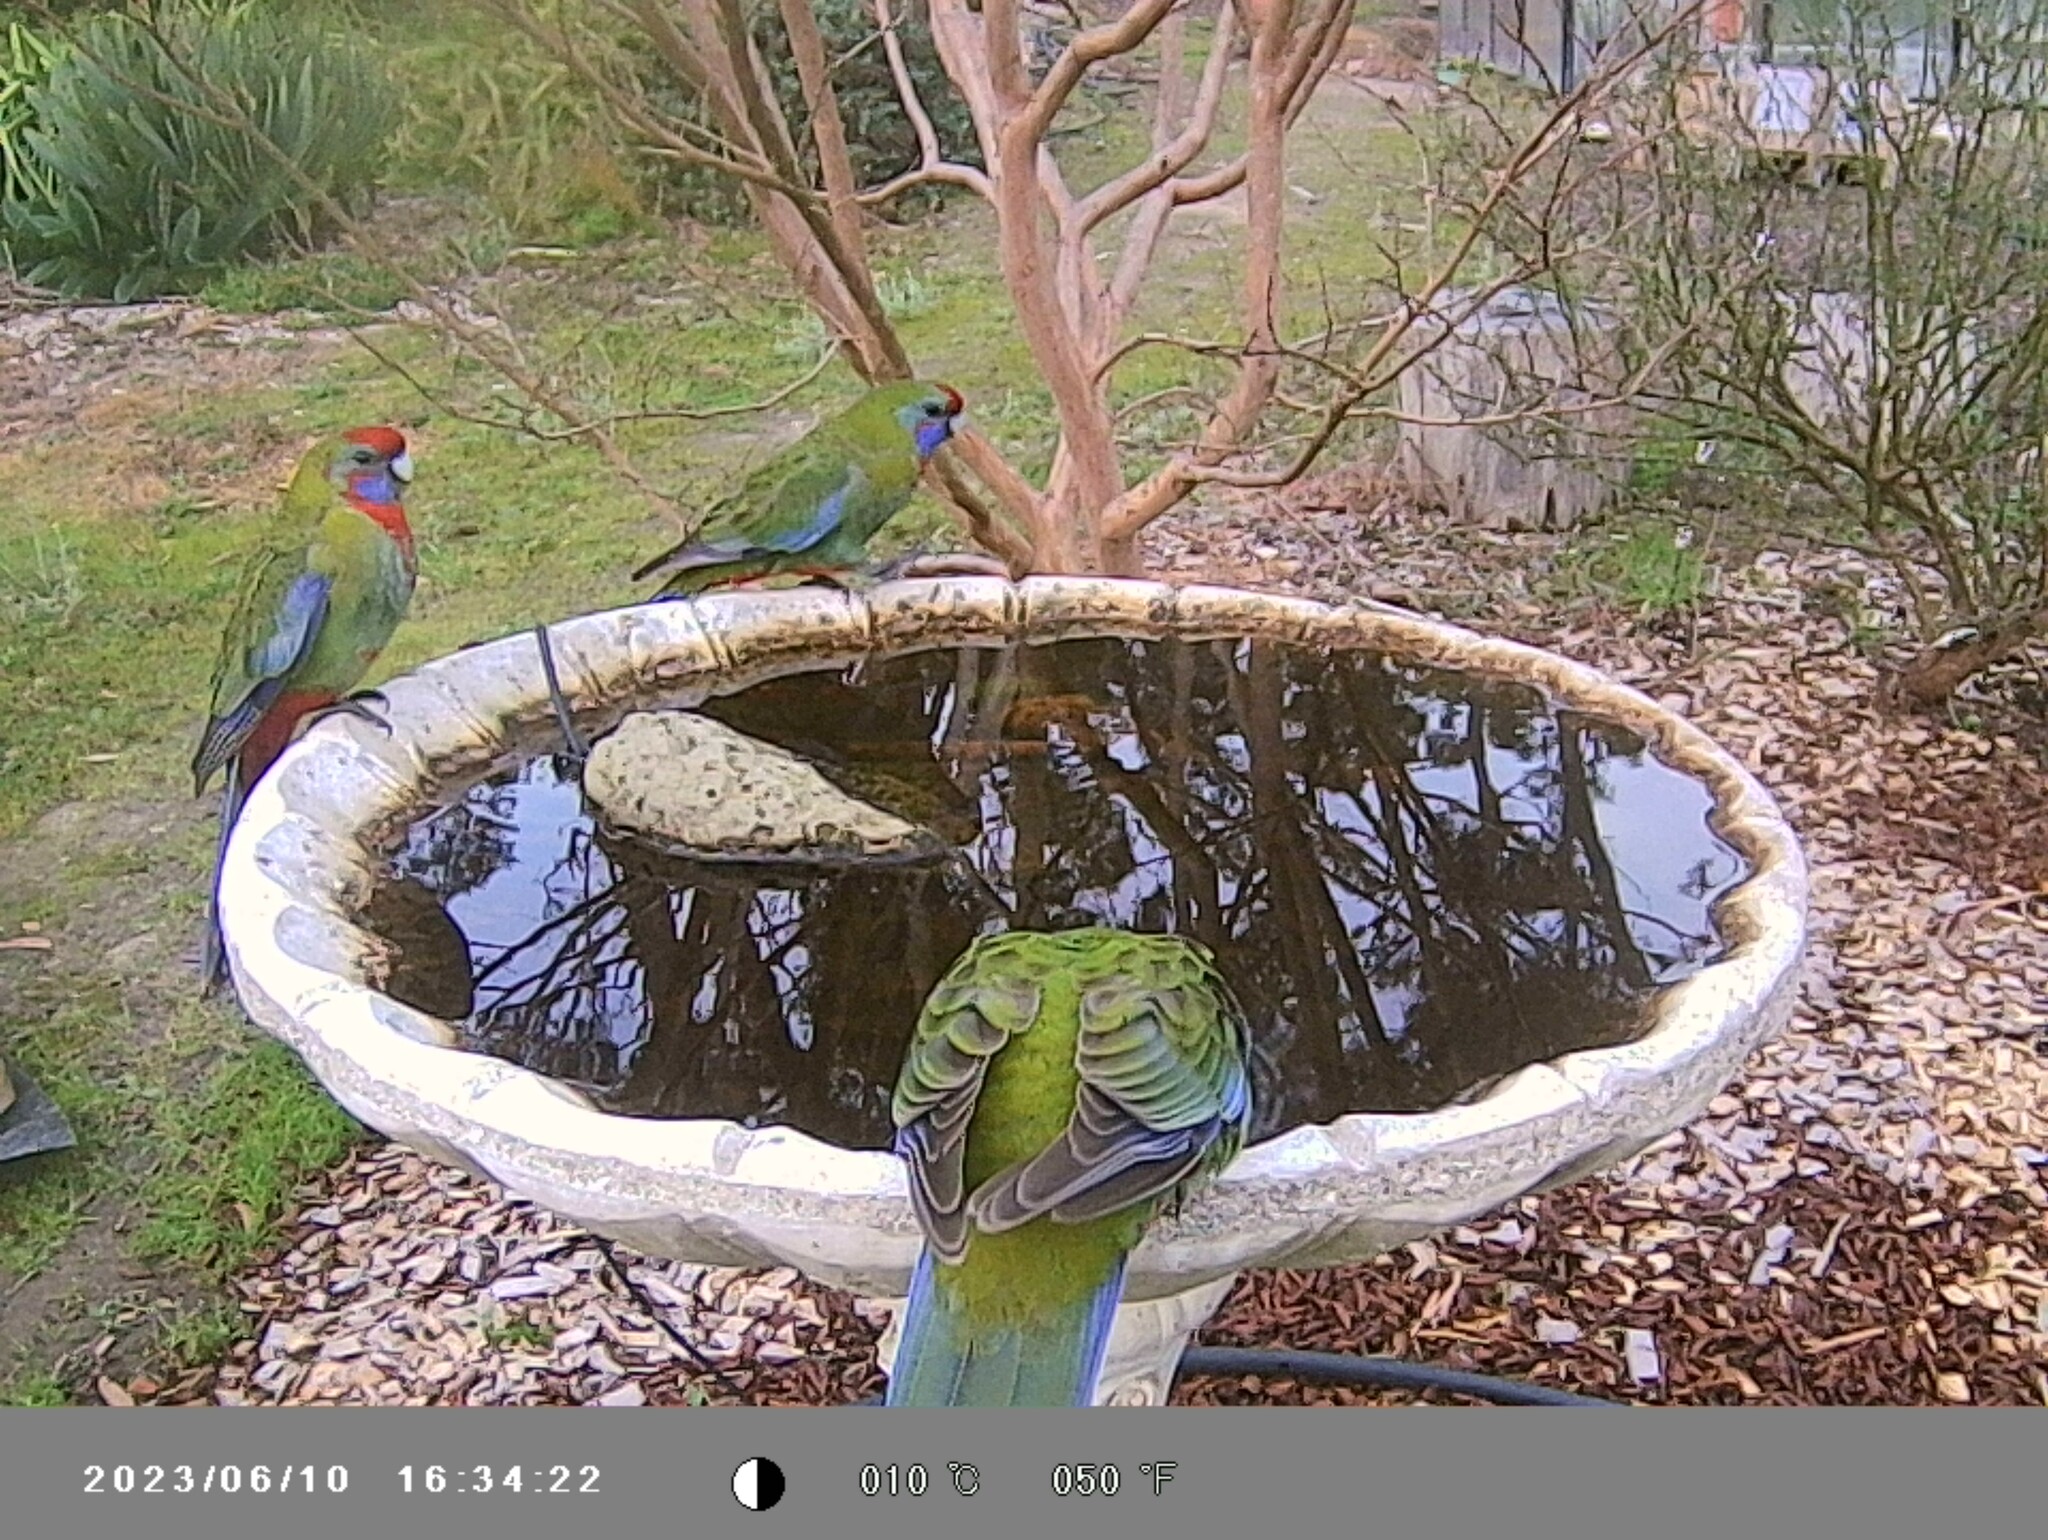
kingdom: Animalia
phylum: Chordata
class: Aves
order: Psittaciformes
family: Psittacidae
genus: Platycercus
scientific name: Platycercus elegans
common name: Crimson rosella
